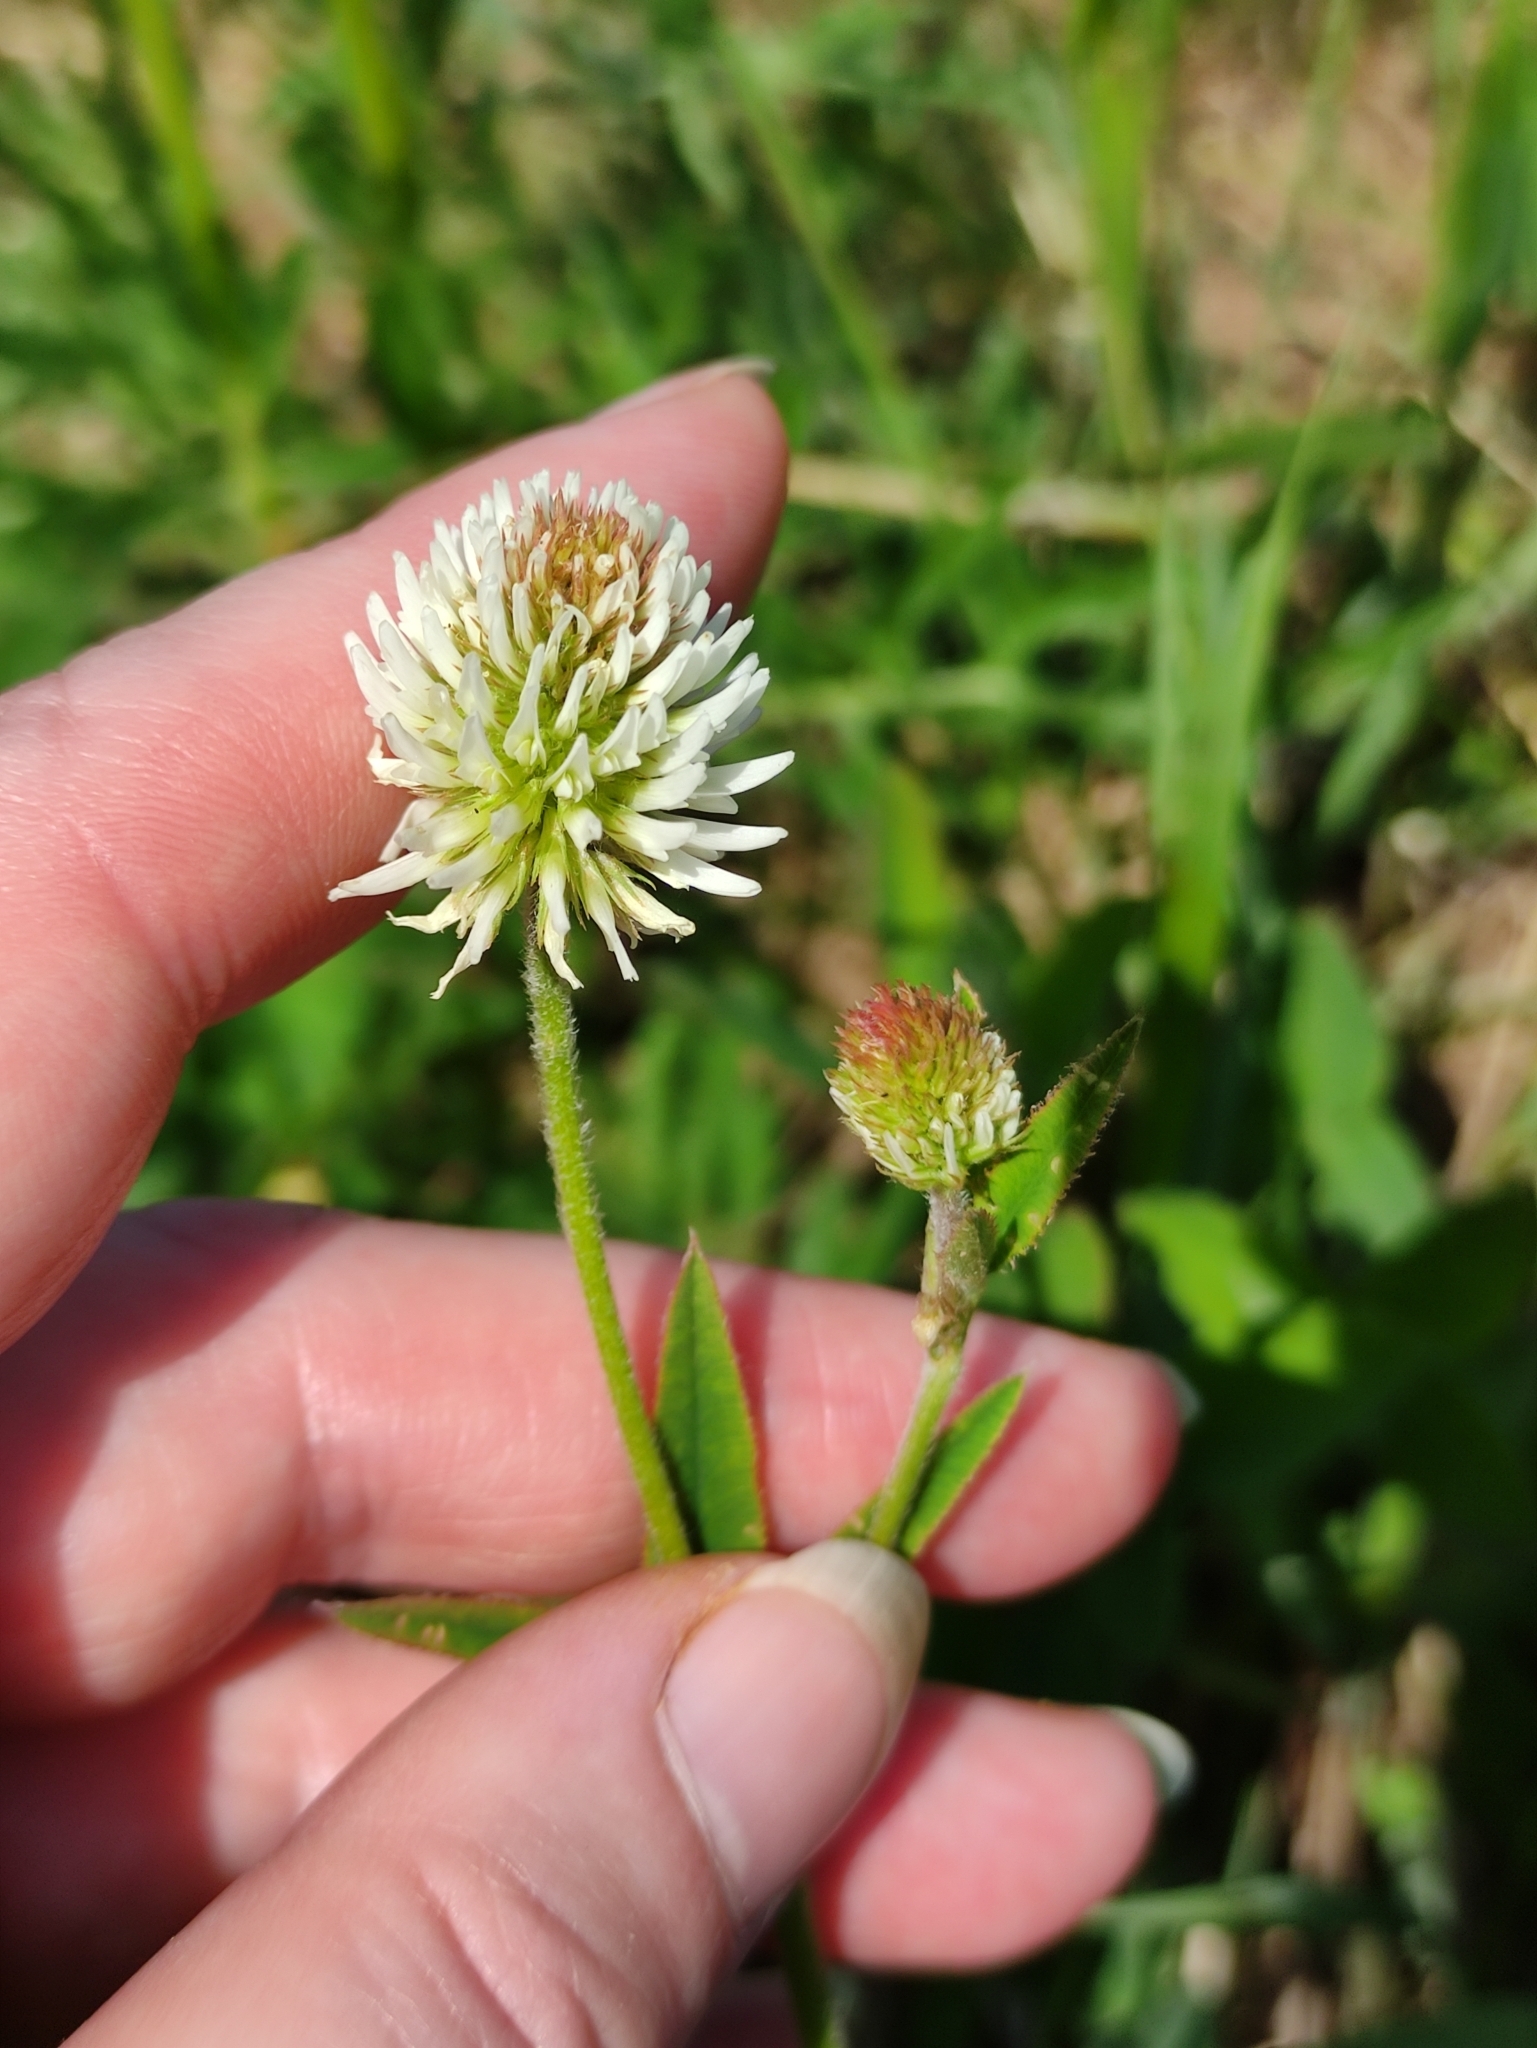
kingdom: Plantae
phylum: Tracheophyta
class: Magnoliopsida
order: Fabales
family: Fabaceae
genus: Trifolium
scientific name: Trifolium montanum
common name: Mountain clover
